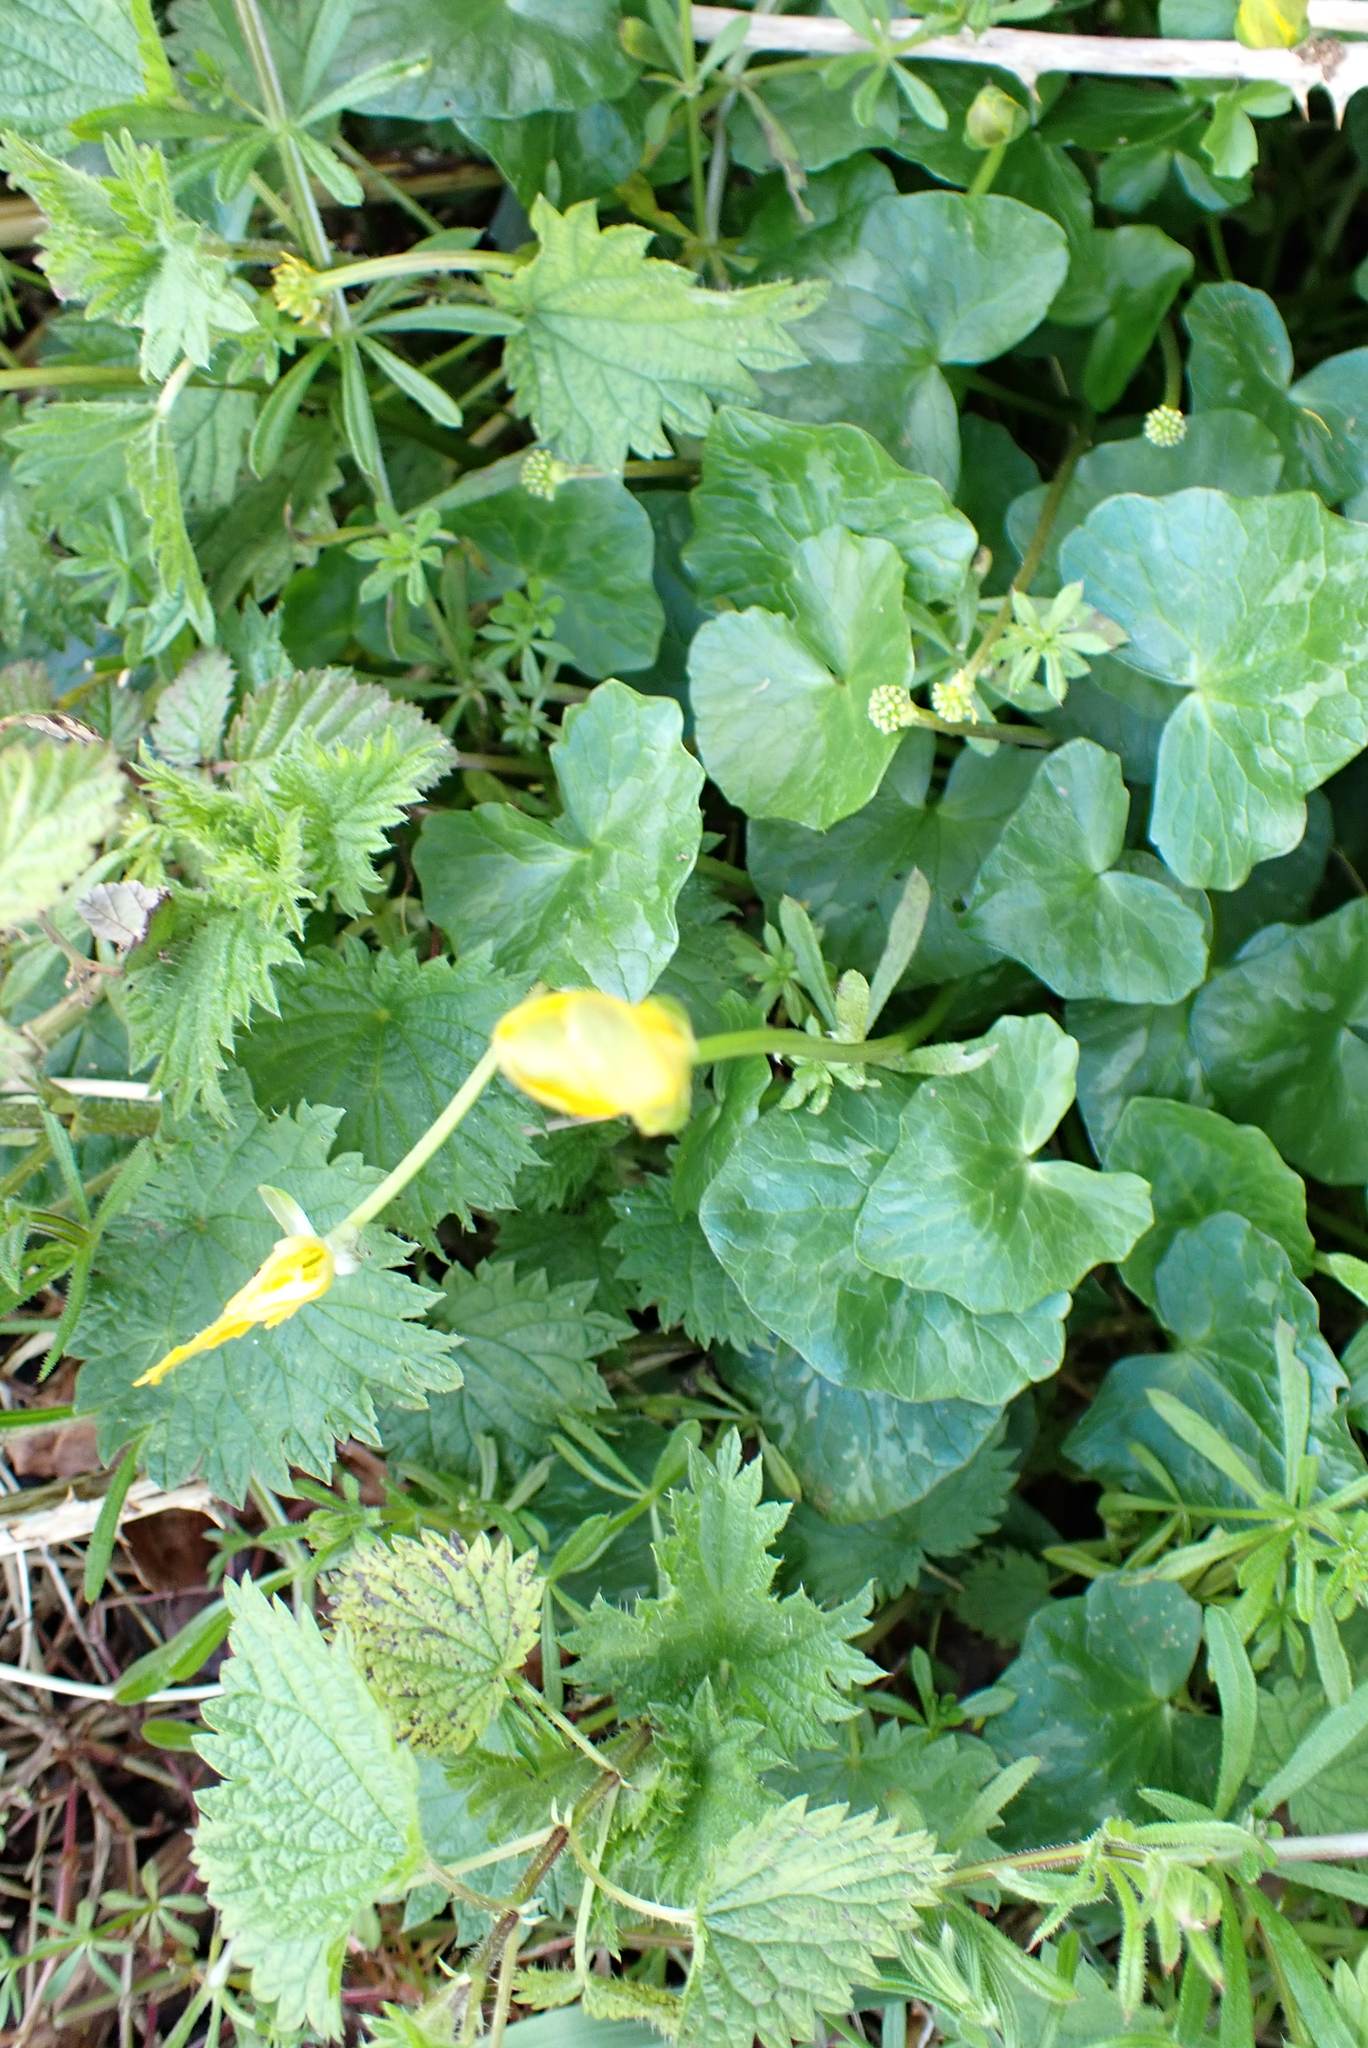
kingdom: Plantae
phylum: Tracheophyta
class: Magnoliopsida
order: Ranunculales
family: Ranunculaceae
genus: Ficaria
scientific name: Ficaria verna
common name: Lesser celandine
